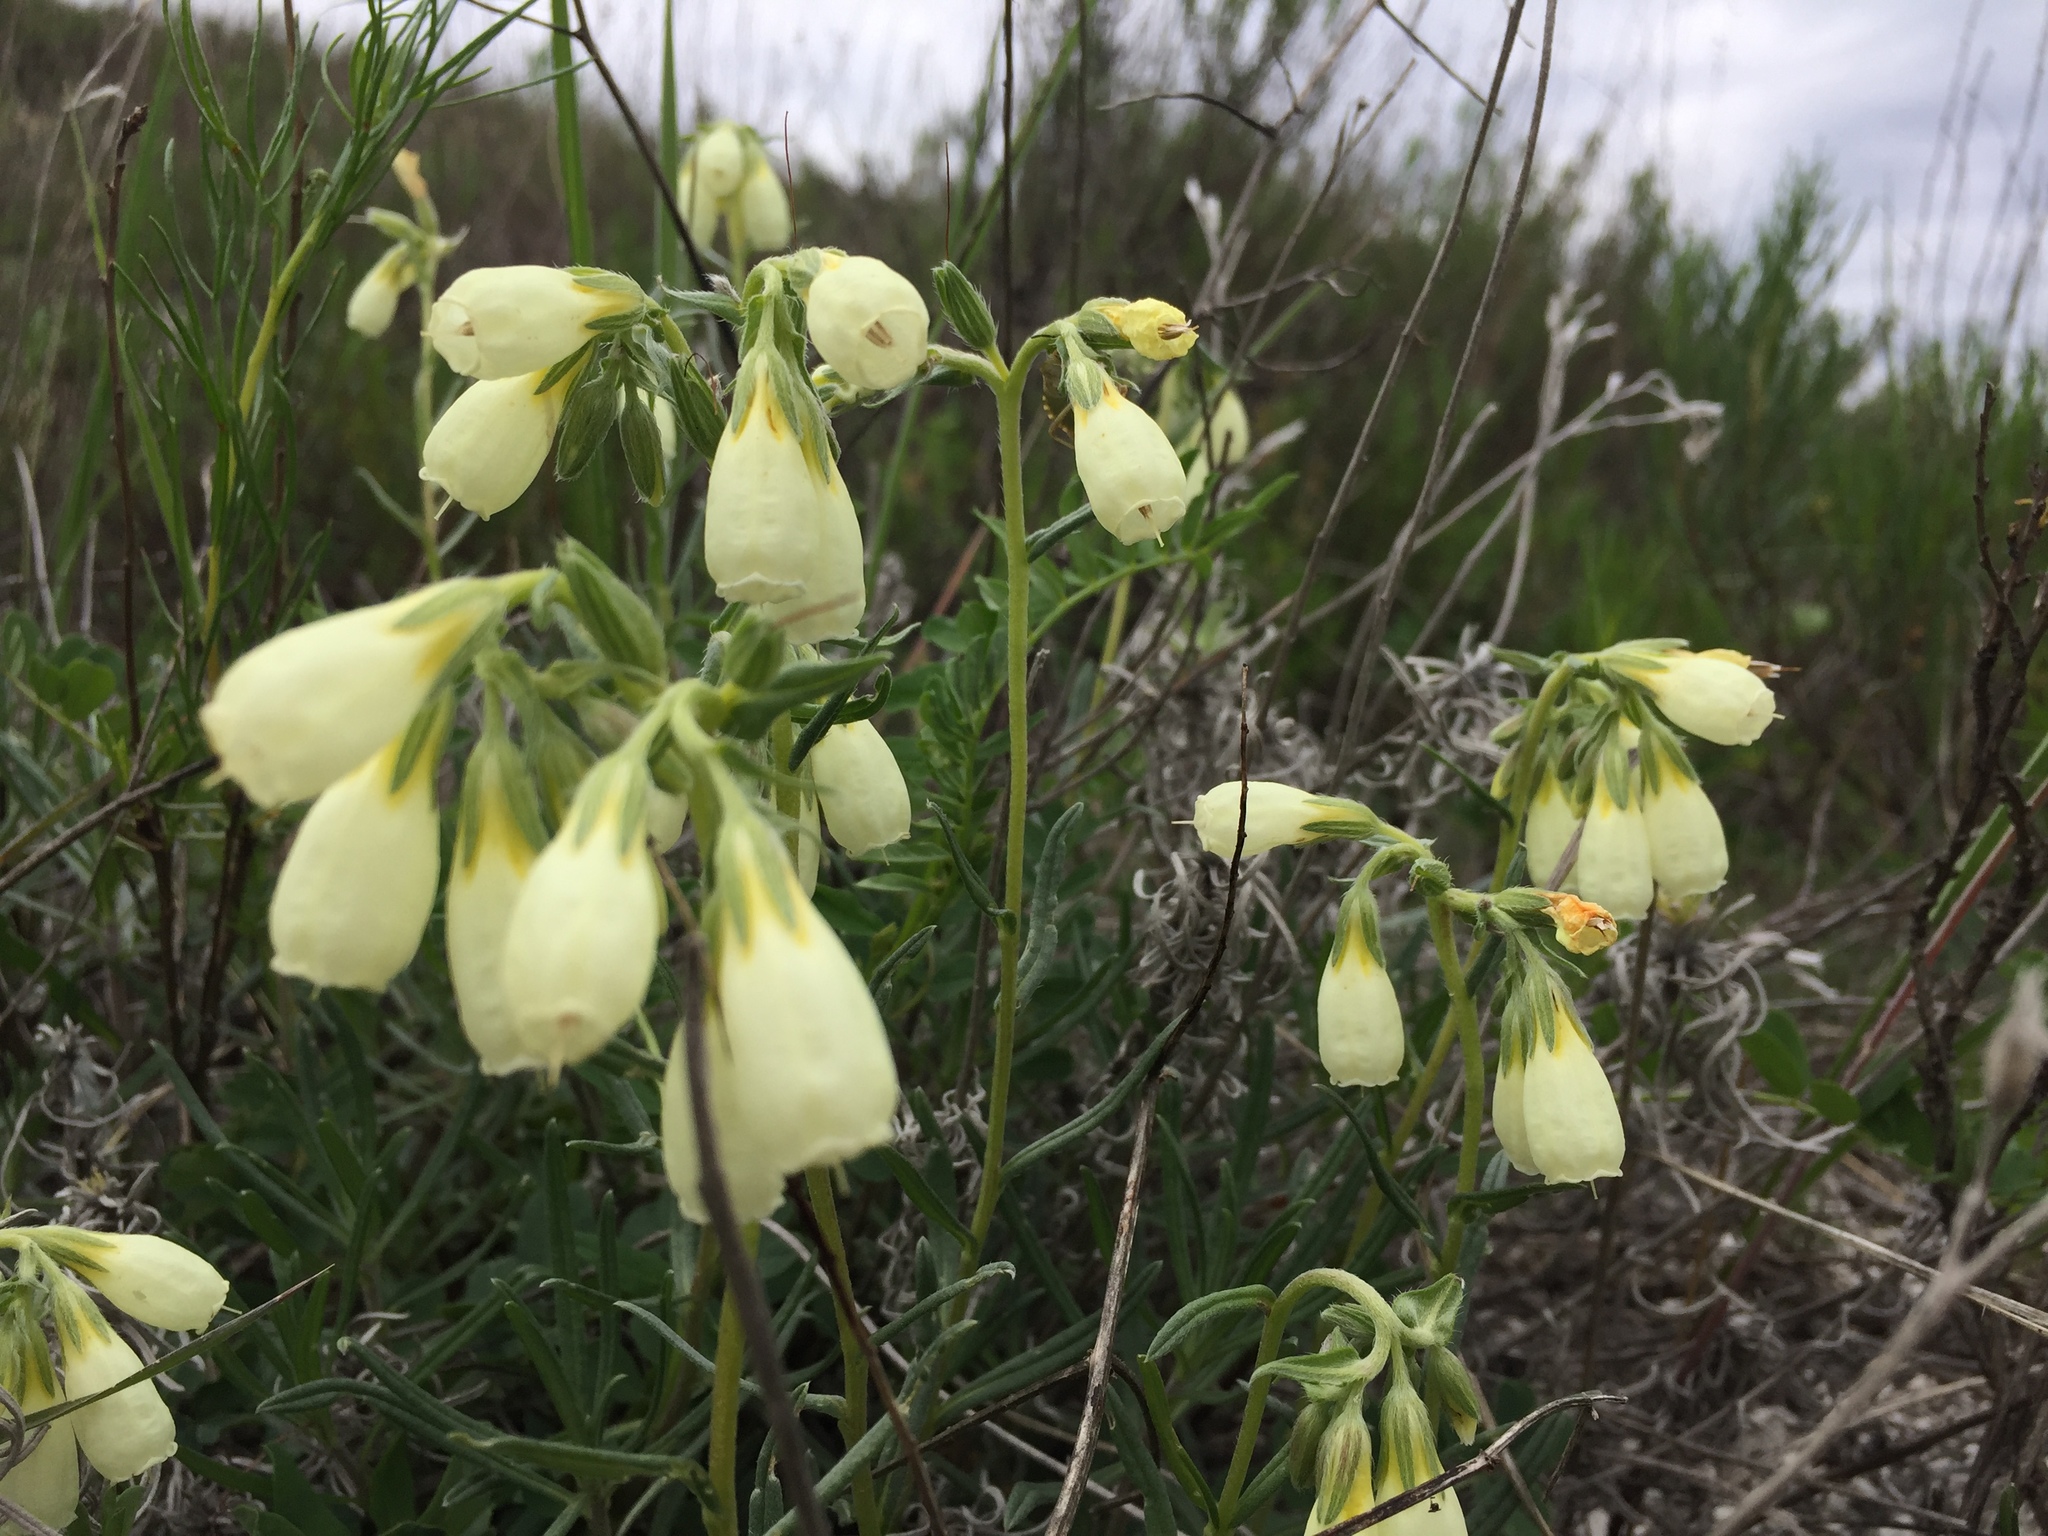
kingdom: Plantae
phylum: Tracheophyta
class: Magnoliopsida
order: Boraginales
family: Boraginaceae
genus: Onosma
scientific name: Onosma simplicissima
